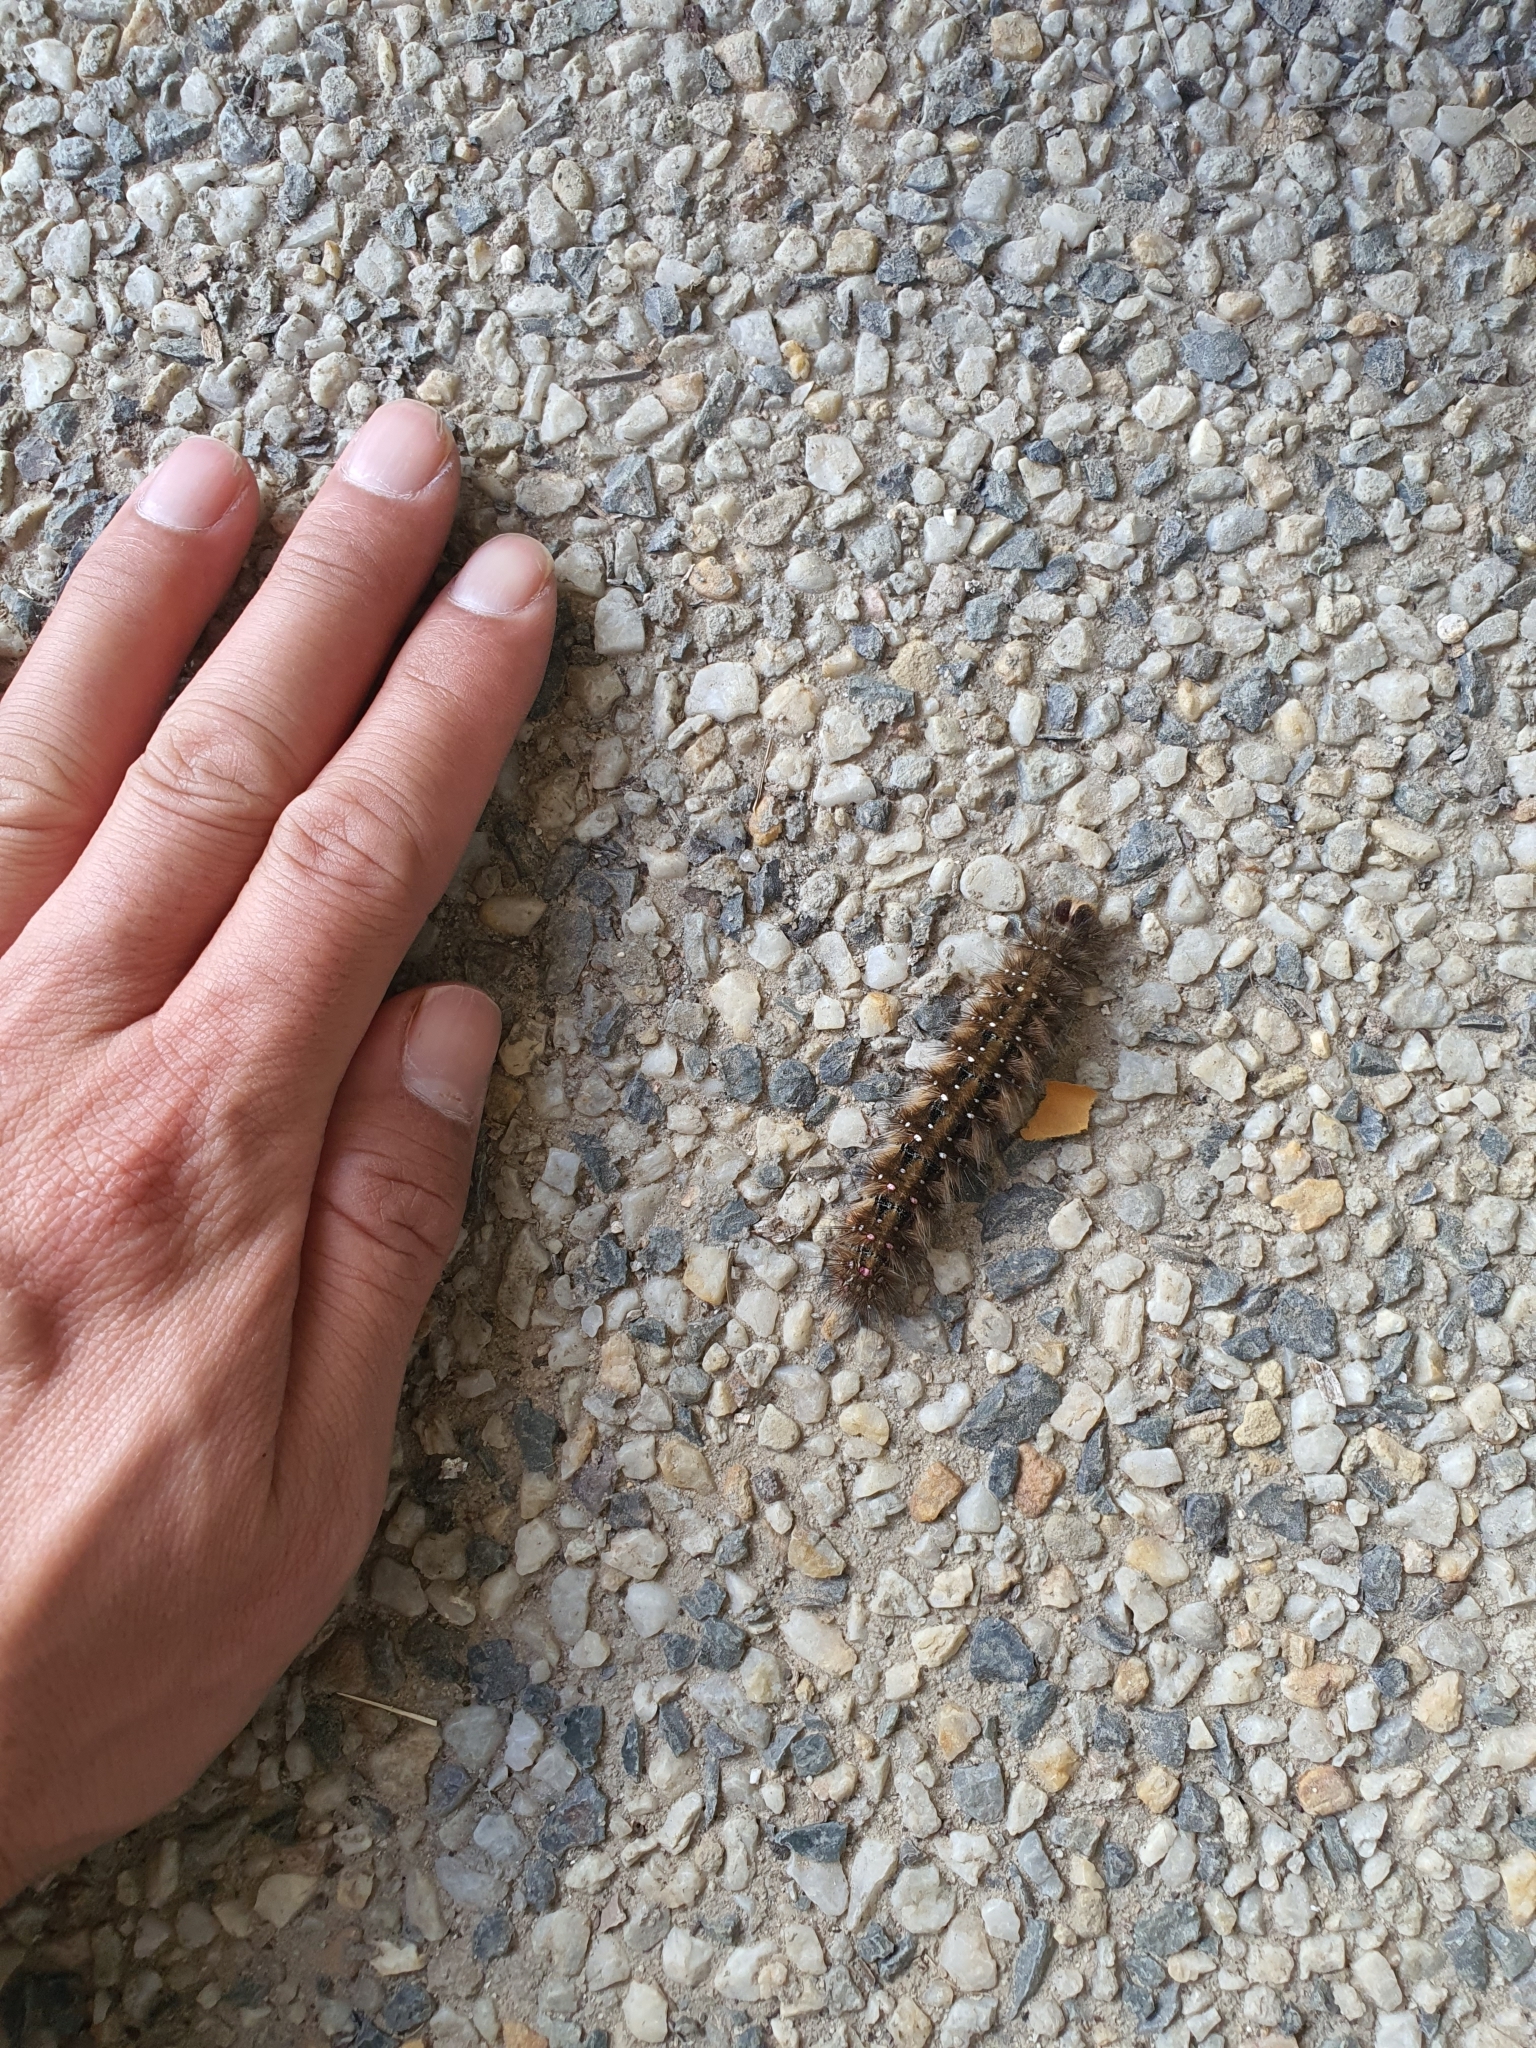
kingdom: Animalia
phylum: Arthropoda
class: Insecta
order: Lepidoptera
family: Anthelidae
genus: Anthela
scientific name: Anthela acuta
